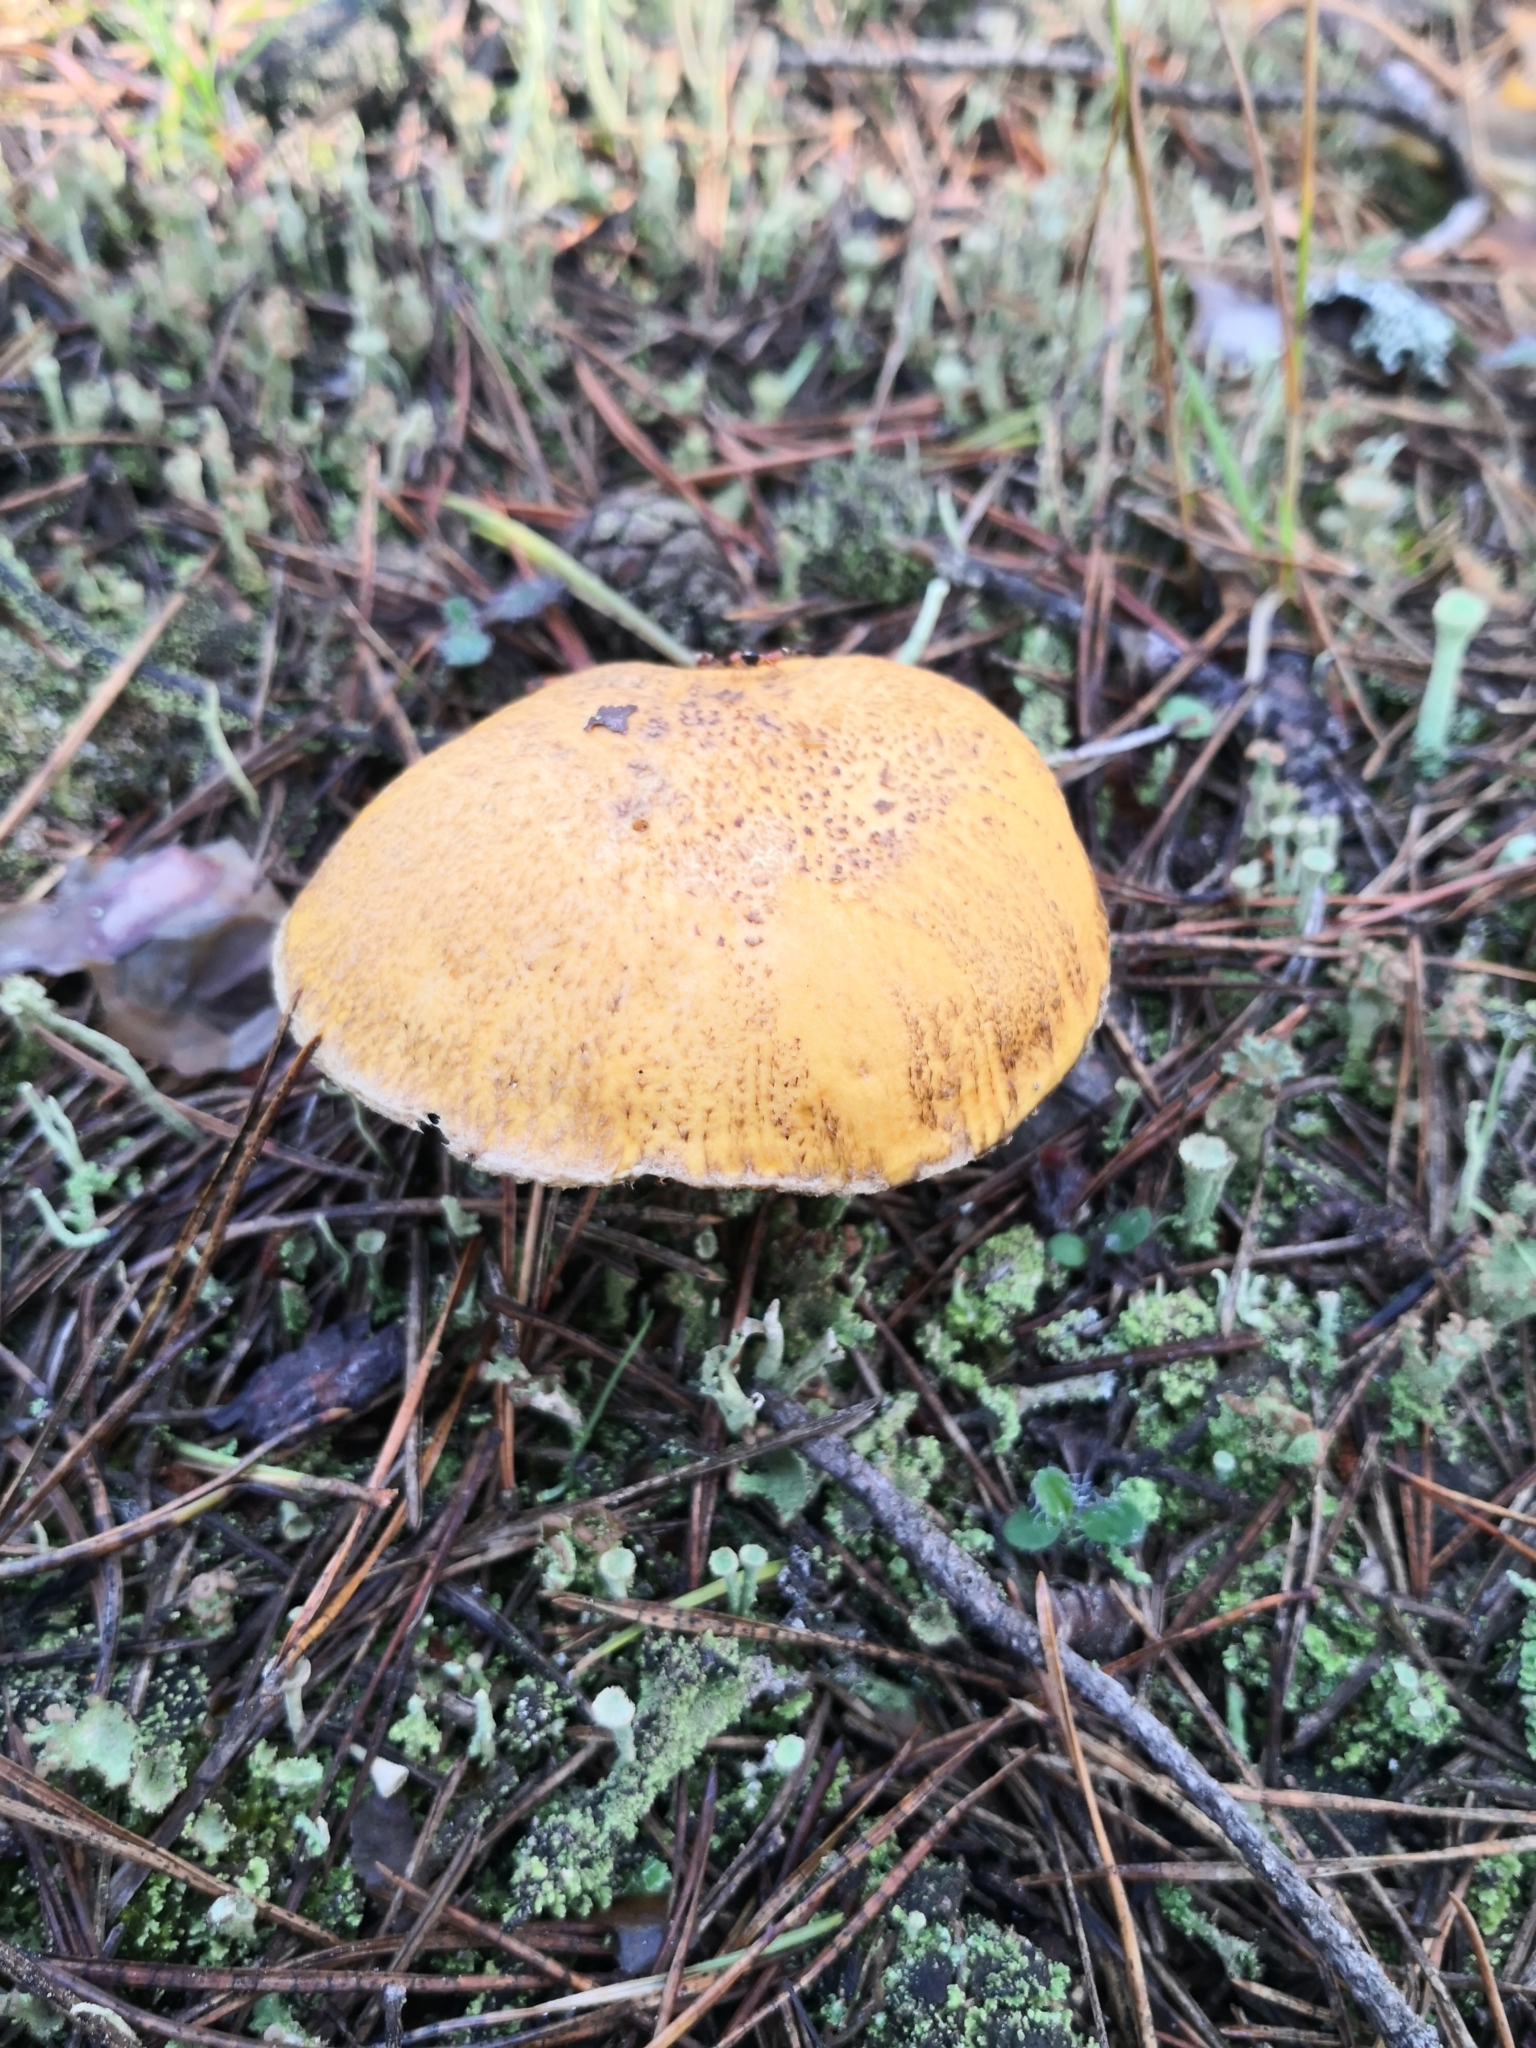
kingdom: Fungi
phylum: Basidiomycota
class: Agaricomycetes
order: Boletales
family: Suillaceae
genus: Suillus
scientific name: Suillus variegatus
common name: Velvet bolete
